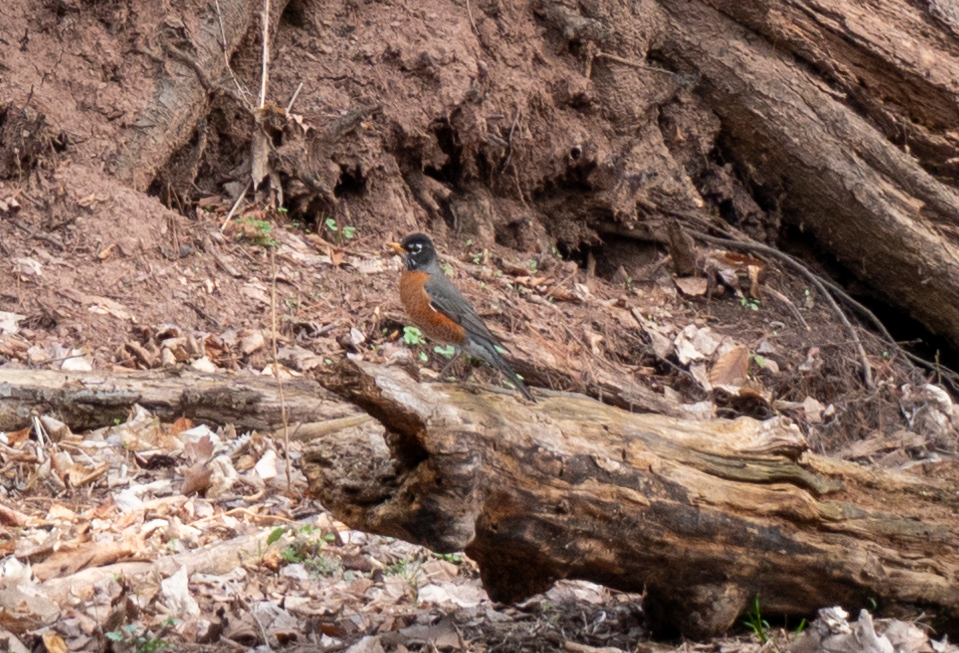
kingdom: Animalia
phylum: Chordata
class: Aves
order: Passeriformes
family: Turdidae
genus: Turdus
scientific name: Turdus migratorius
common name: American robin
